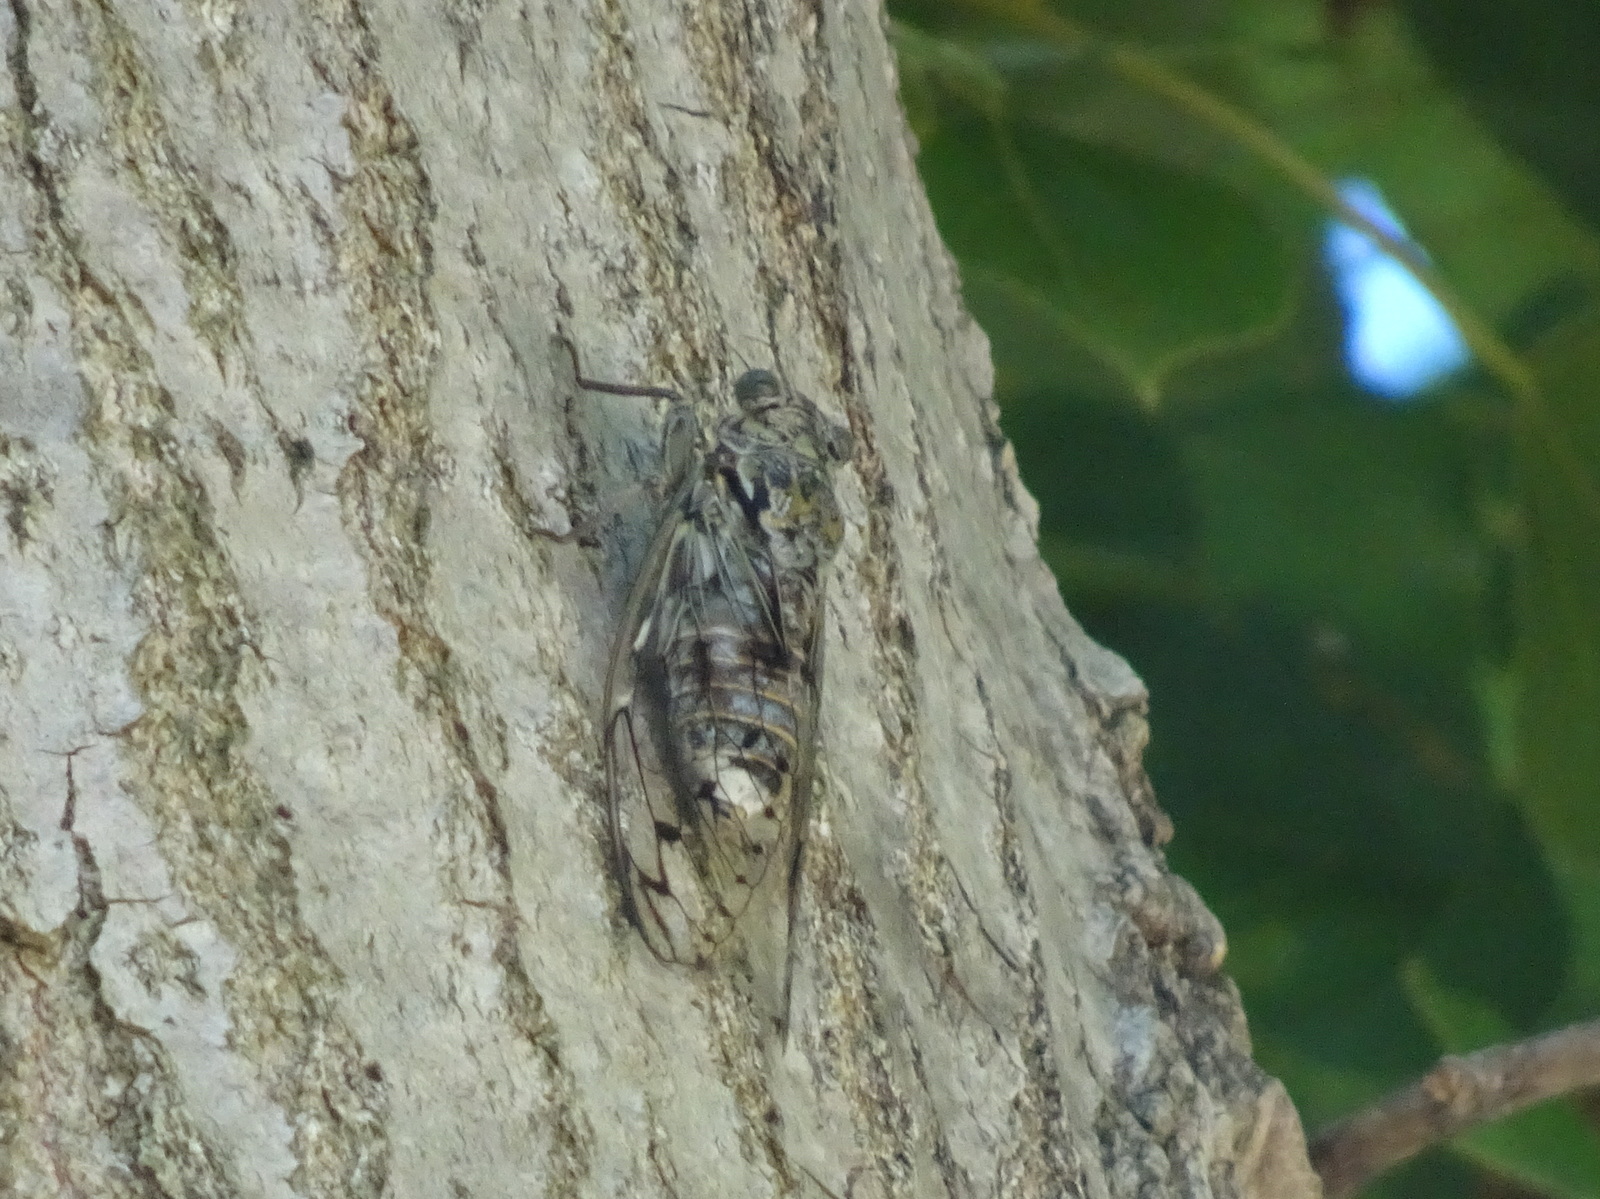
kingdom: Animalia
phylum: Arthropoda
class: Insecta
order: Hemiptera
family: Cicadidae
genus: Cicada
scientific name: Cicada orni
